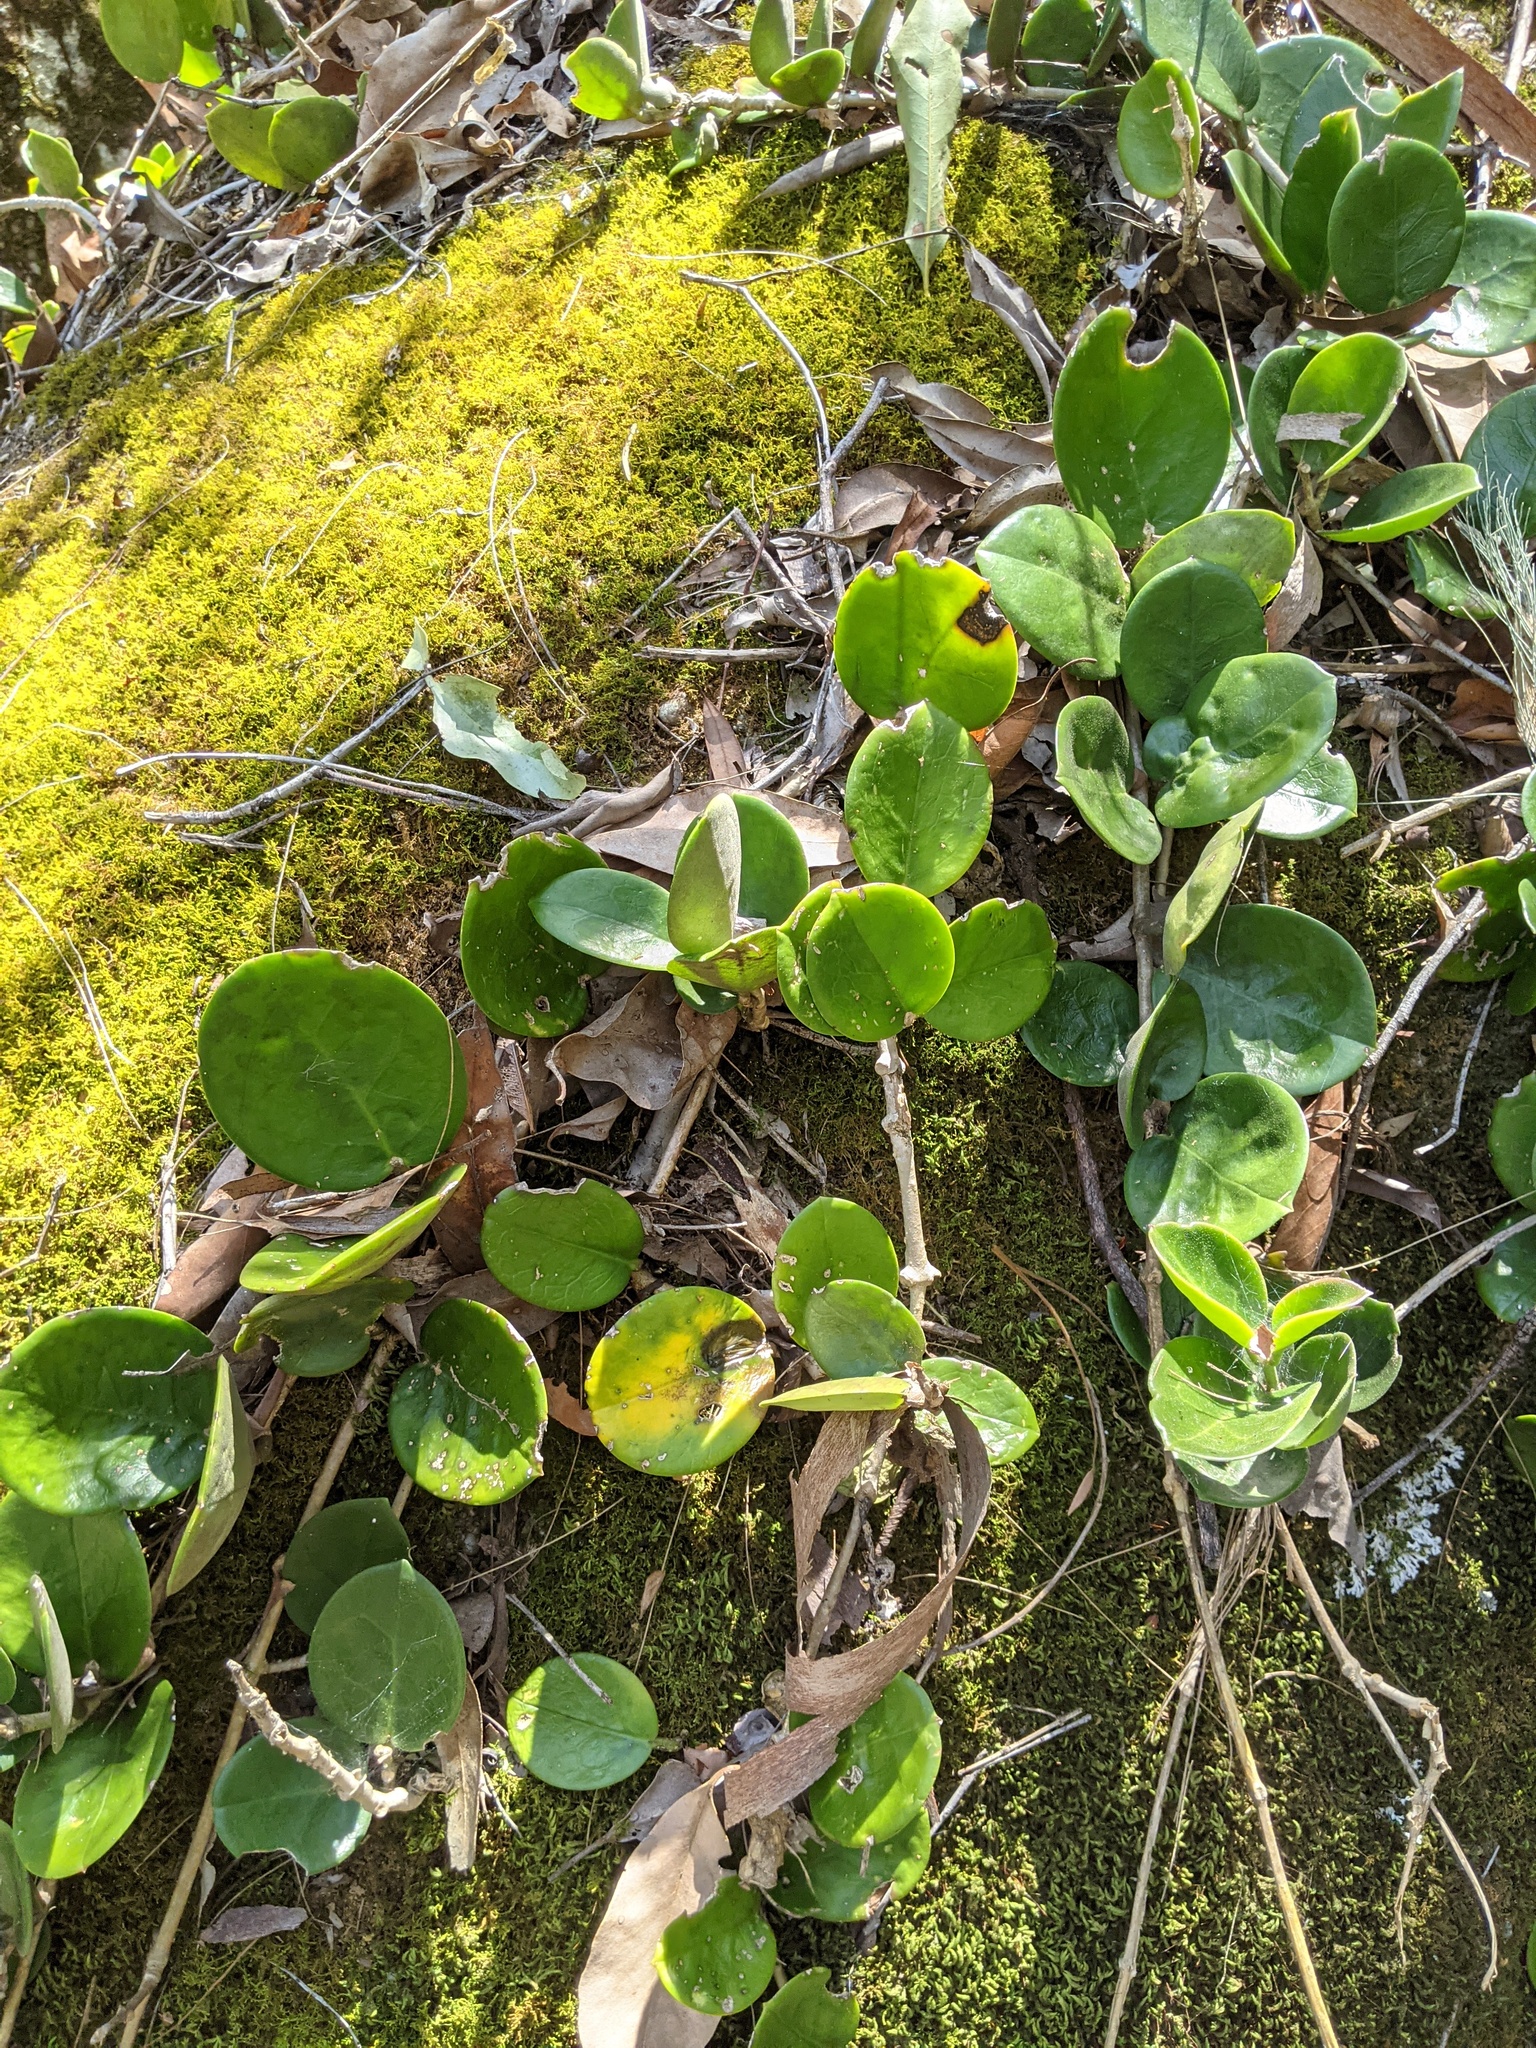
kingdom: Plantae
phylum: Tracheophyta
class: Magnoliopsida
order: Gentianales
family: Apocynaceae
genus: Hoya
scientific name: Hoya australis
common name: Wax flower
